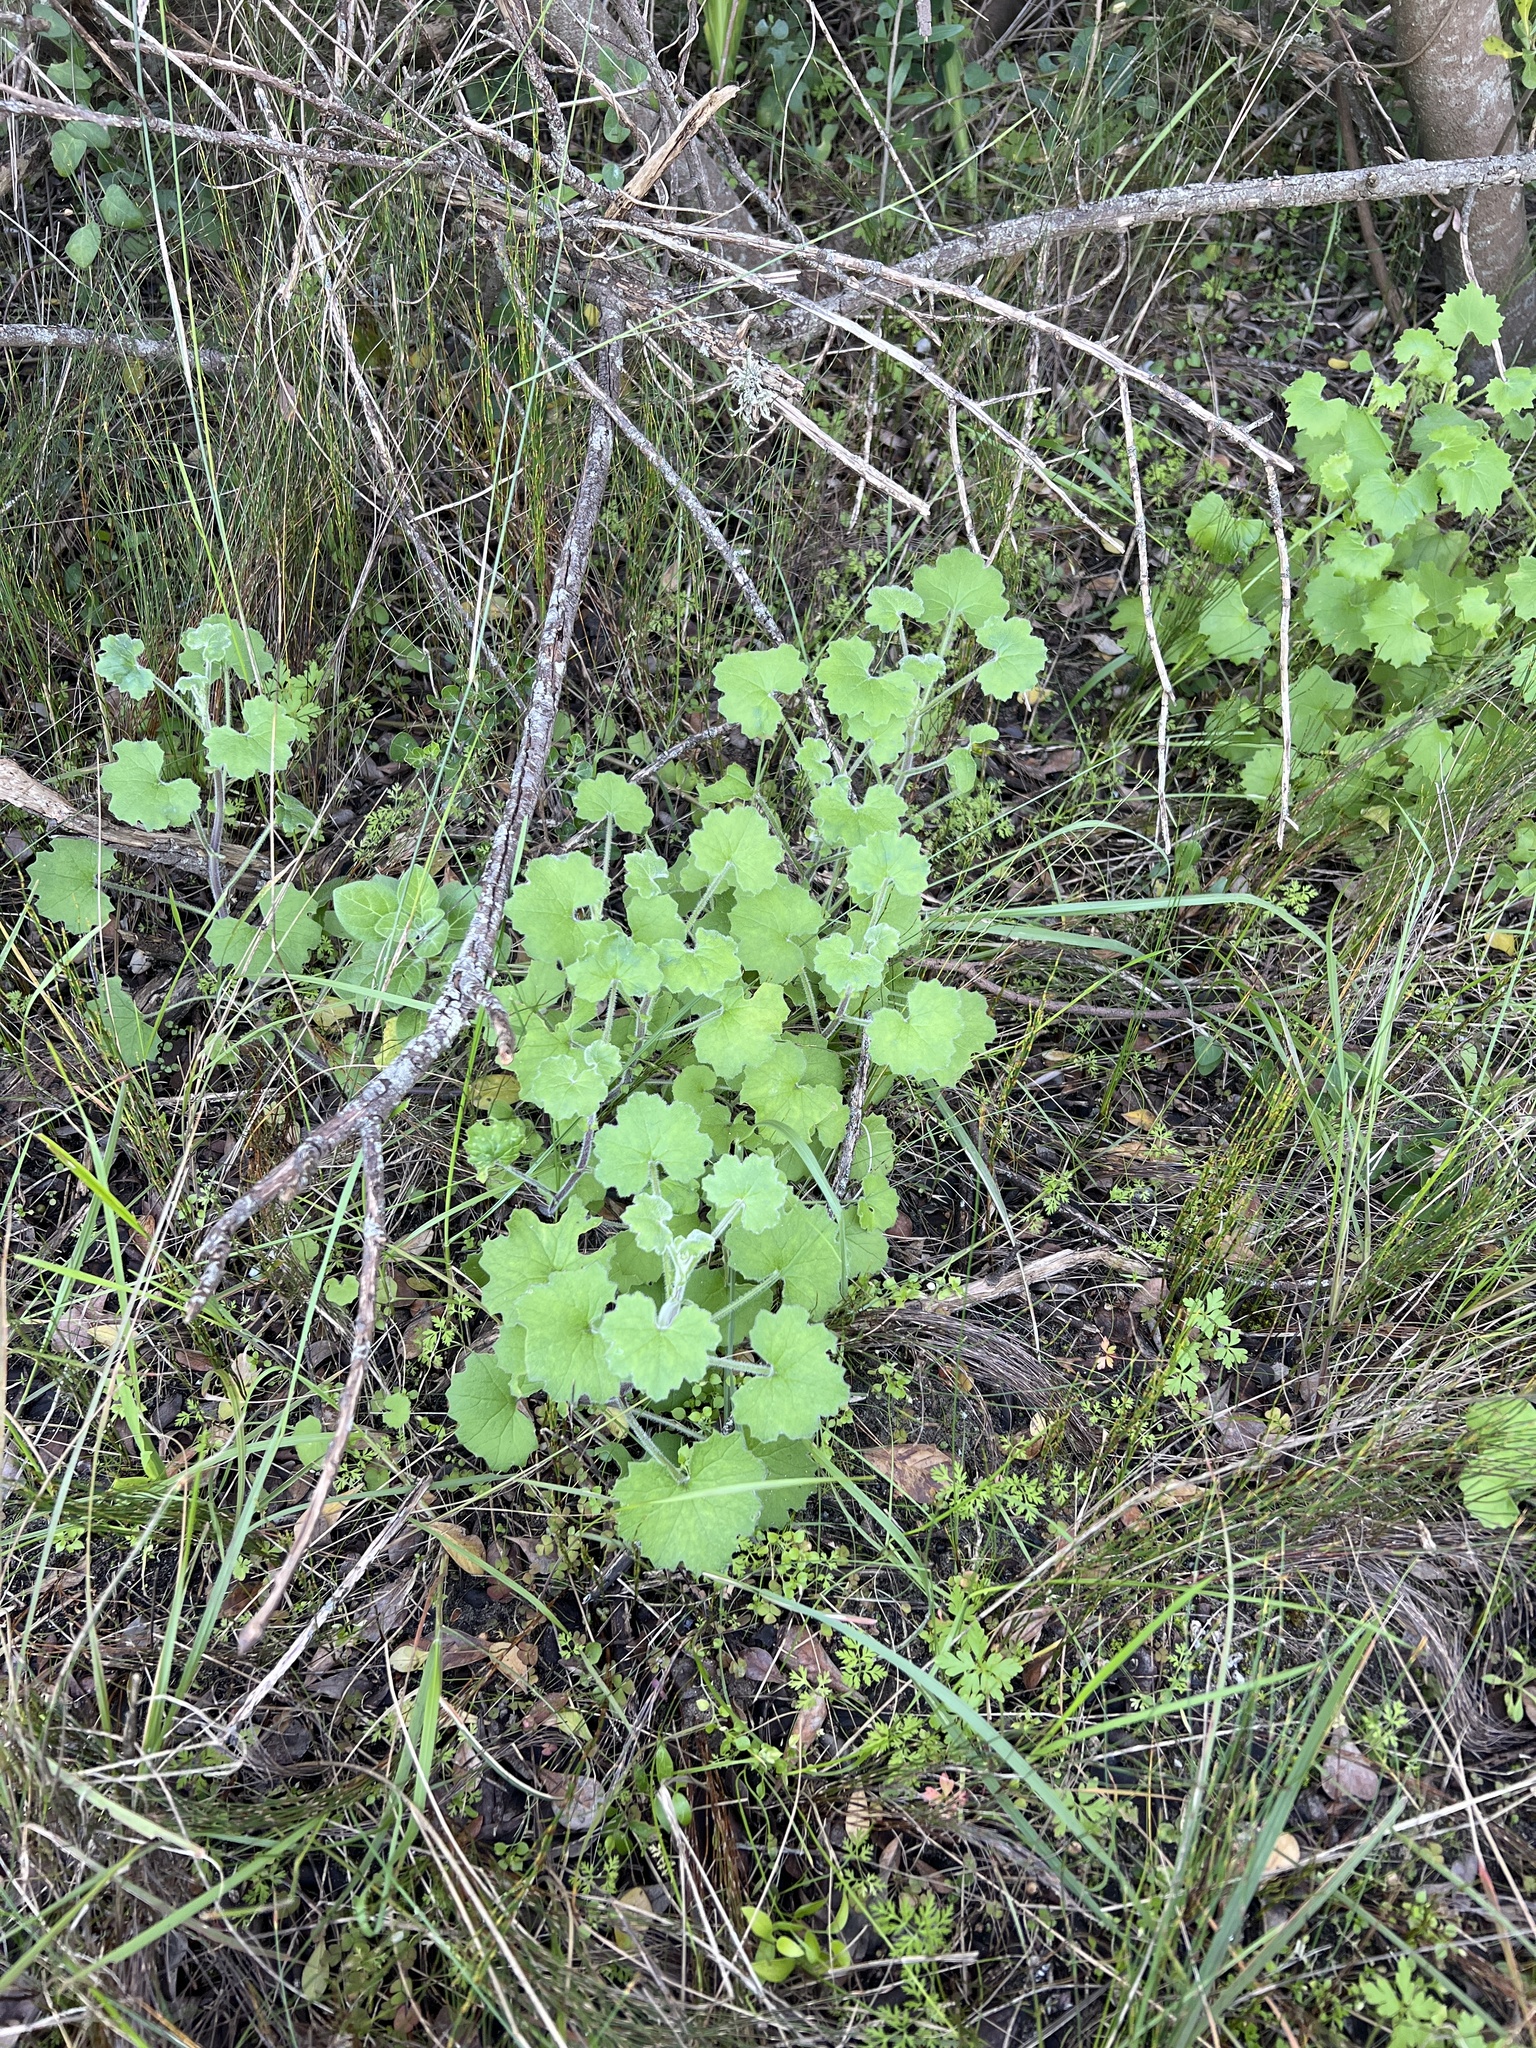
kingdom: Plantae
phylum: Tracheophyta
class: Magnoliopsida
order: Asterales
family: Asteraceae
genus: Cineraria
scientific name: Cineraria geifolia
